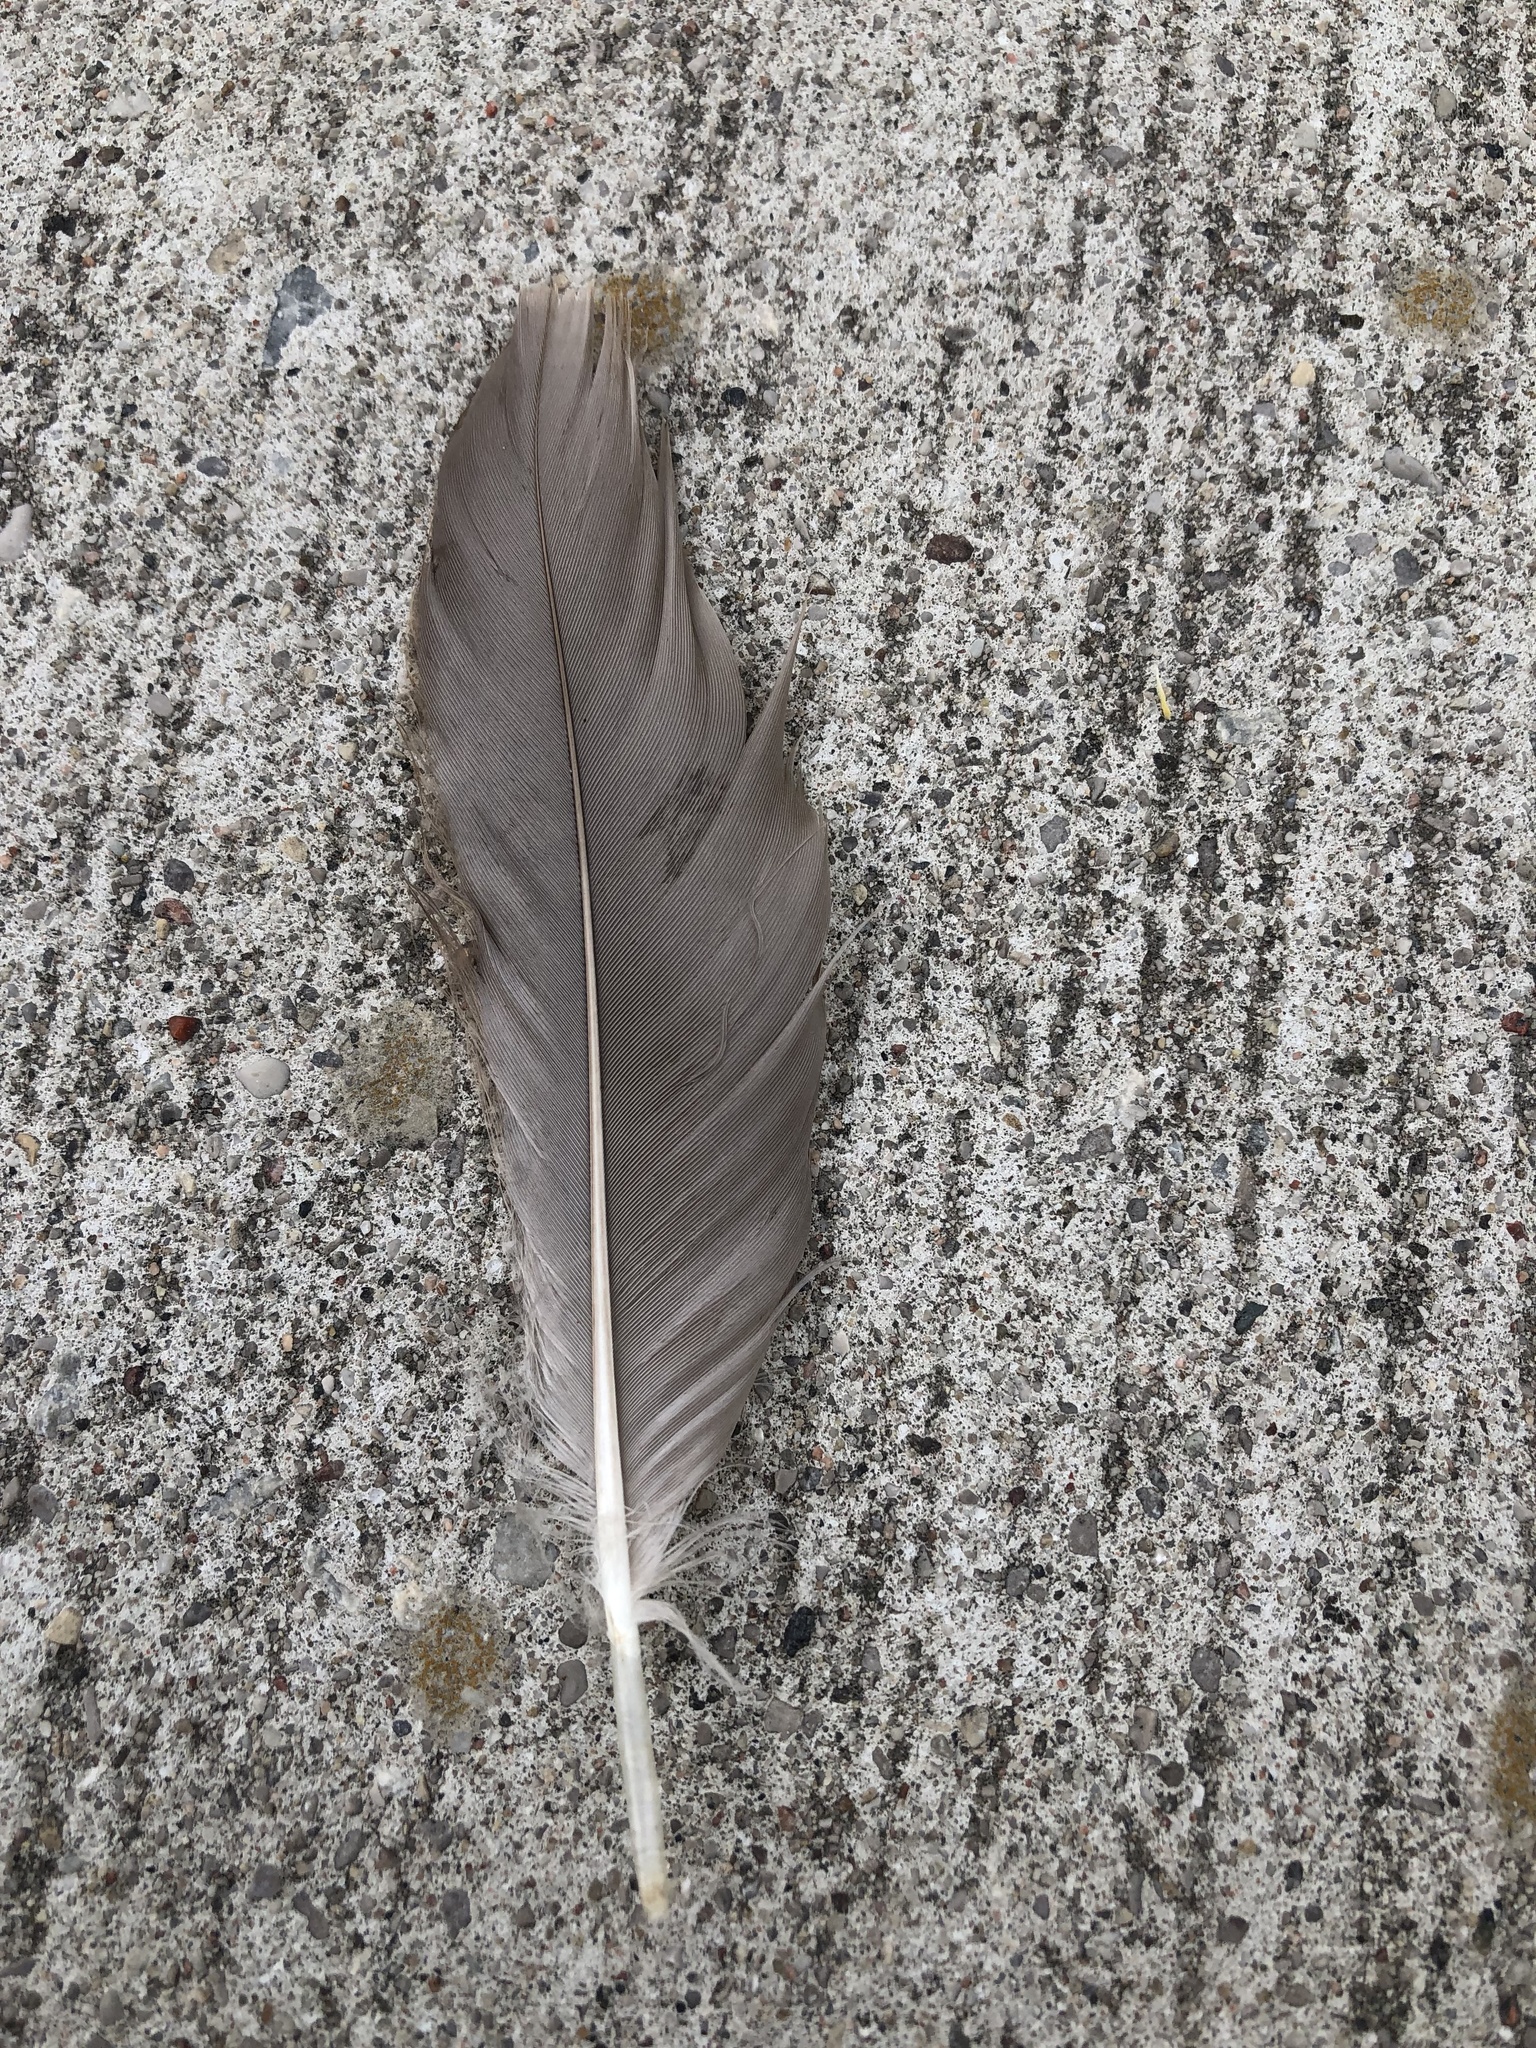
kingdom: Animalia
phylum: Chordata
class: Aves
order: Anseriformes
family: Anatidae
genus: Branta
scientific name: Branta canadensis
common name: Canada goose
